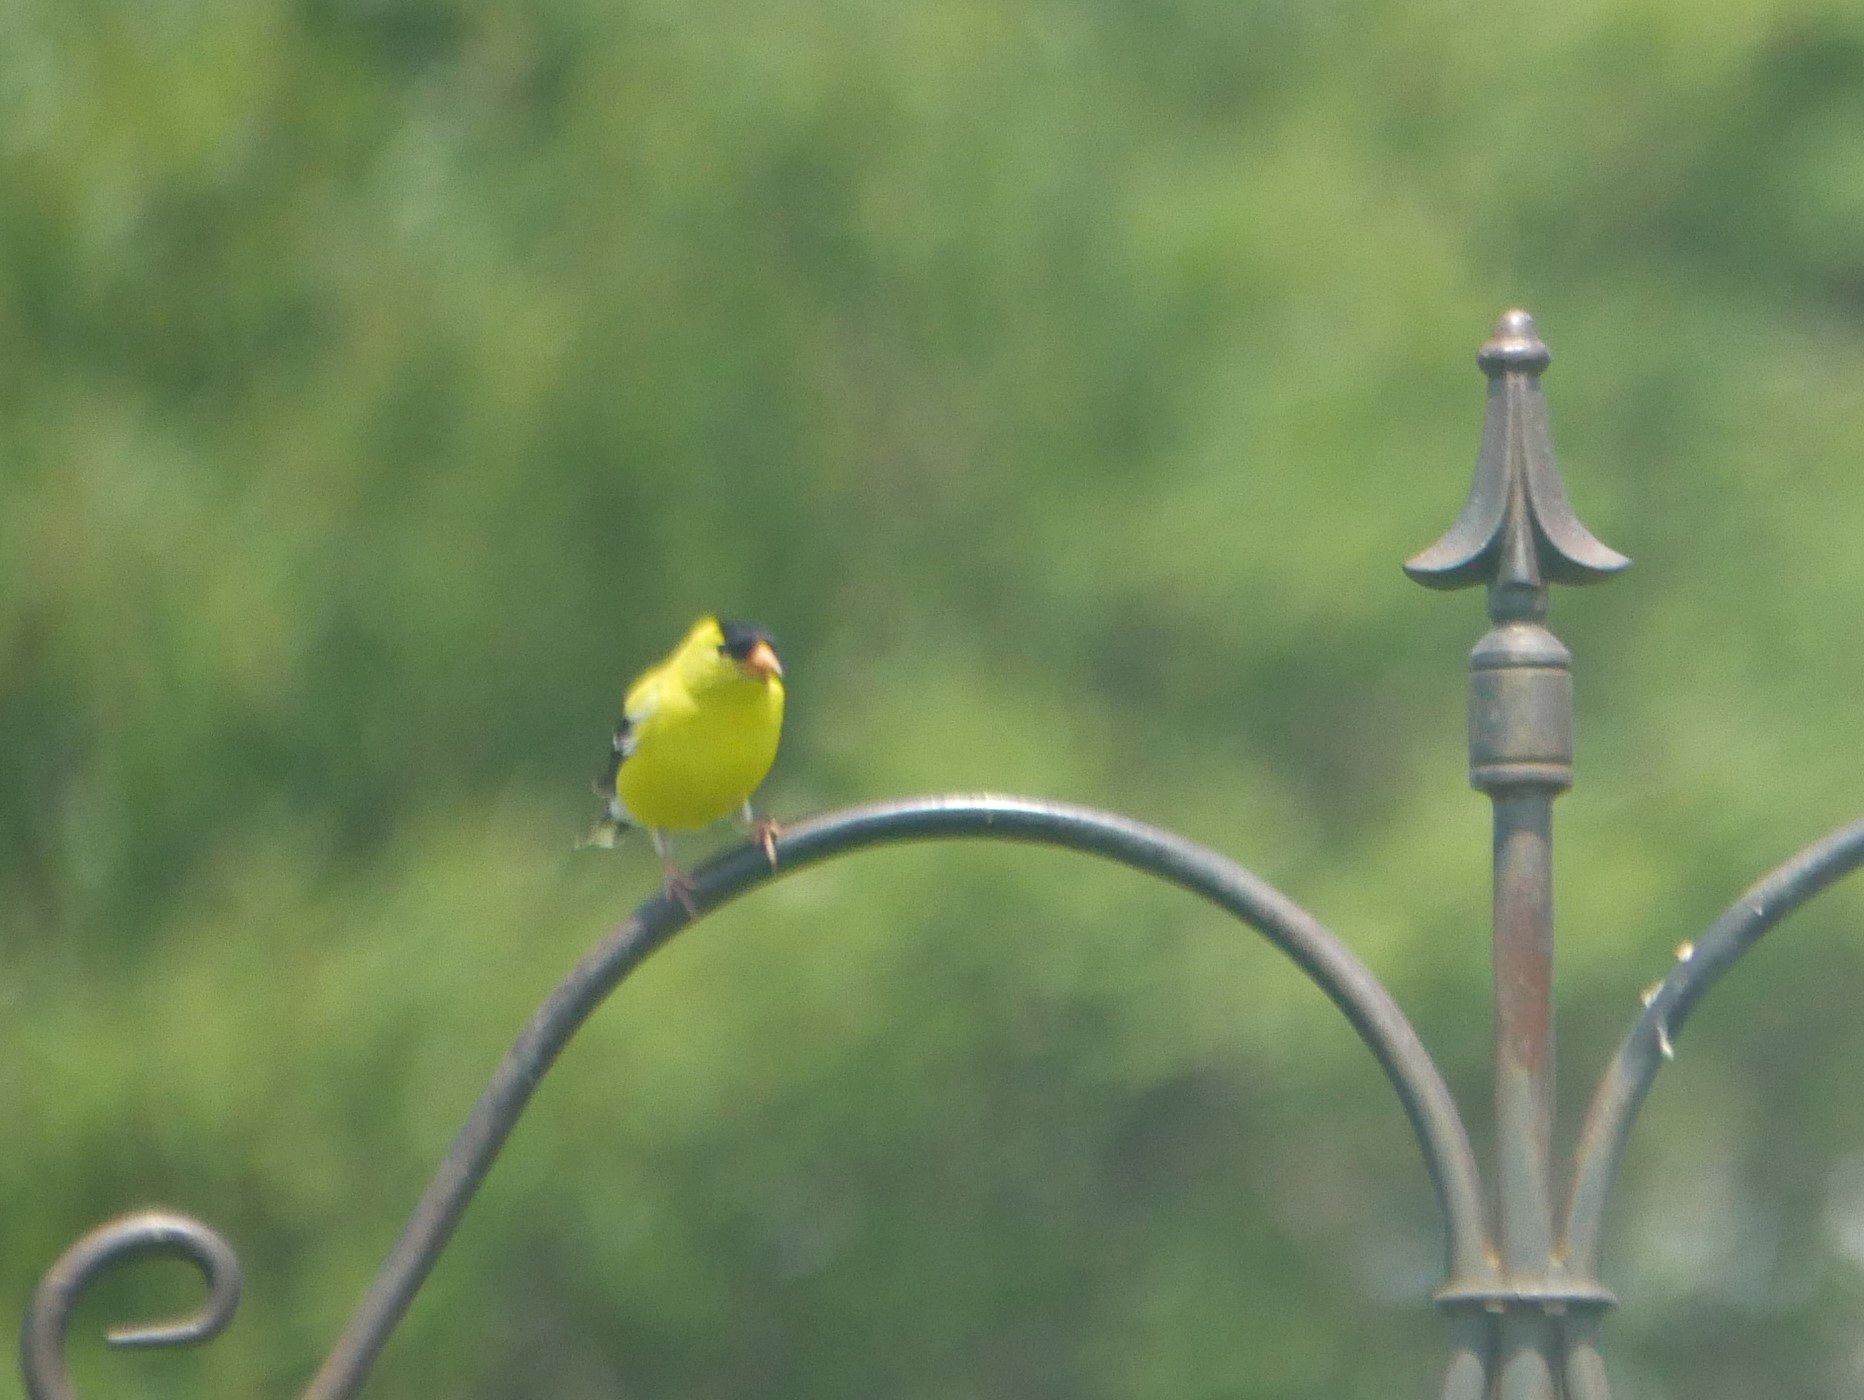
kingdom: Animalia
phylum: Chordata
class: Aves
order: Passeriformes
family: Fringillidae
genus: Spinus
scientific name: Spinus tristis
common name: American goldfinch
